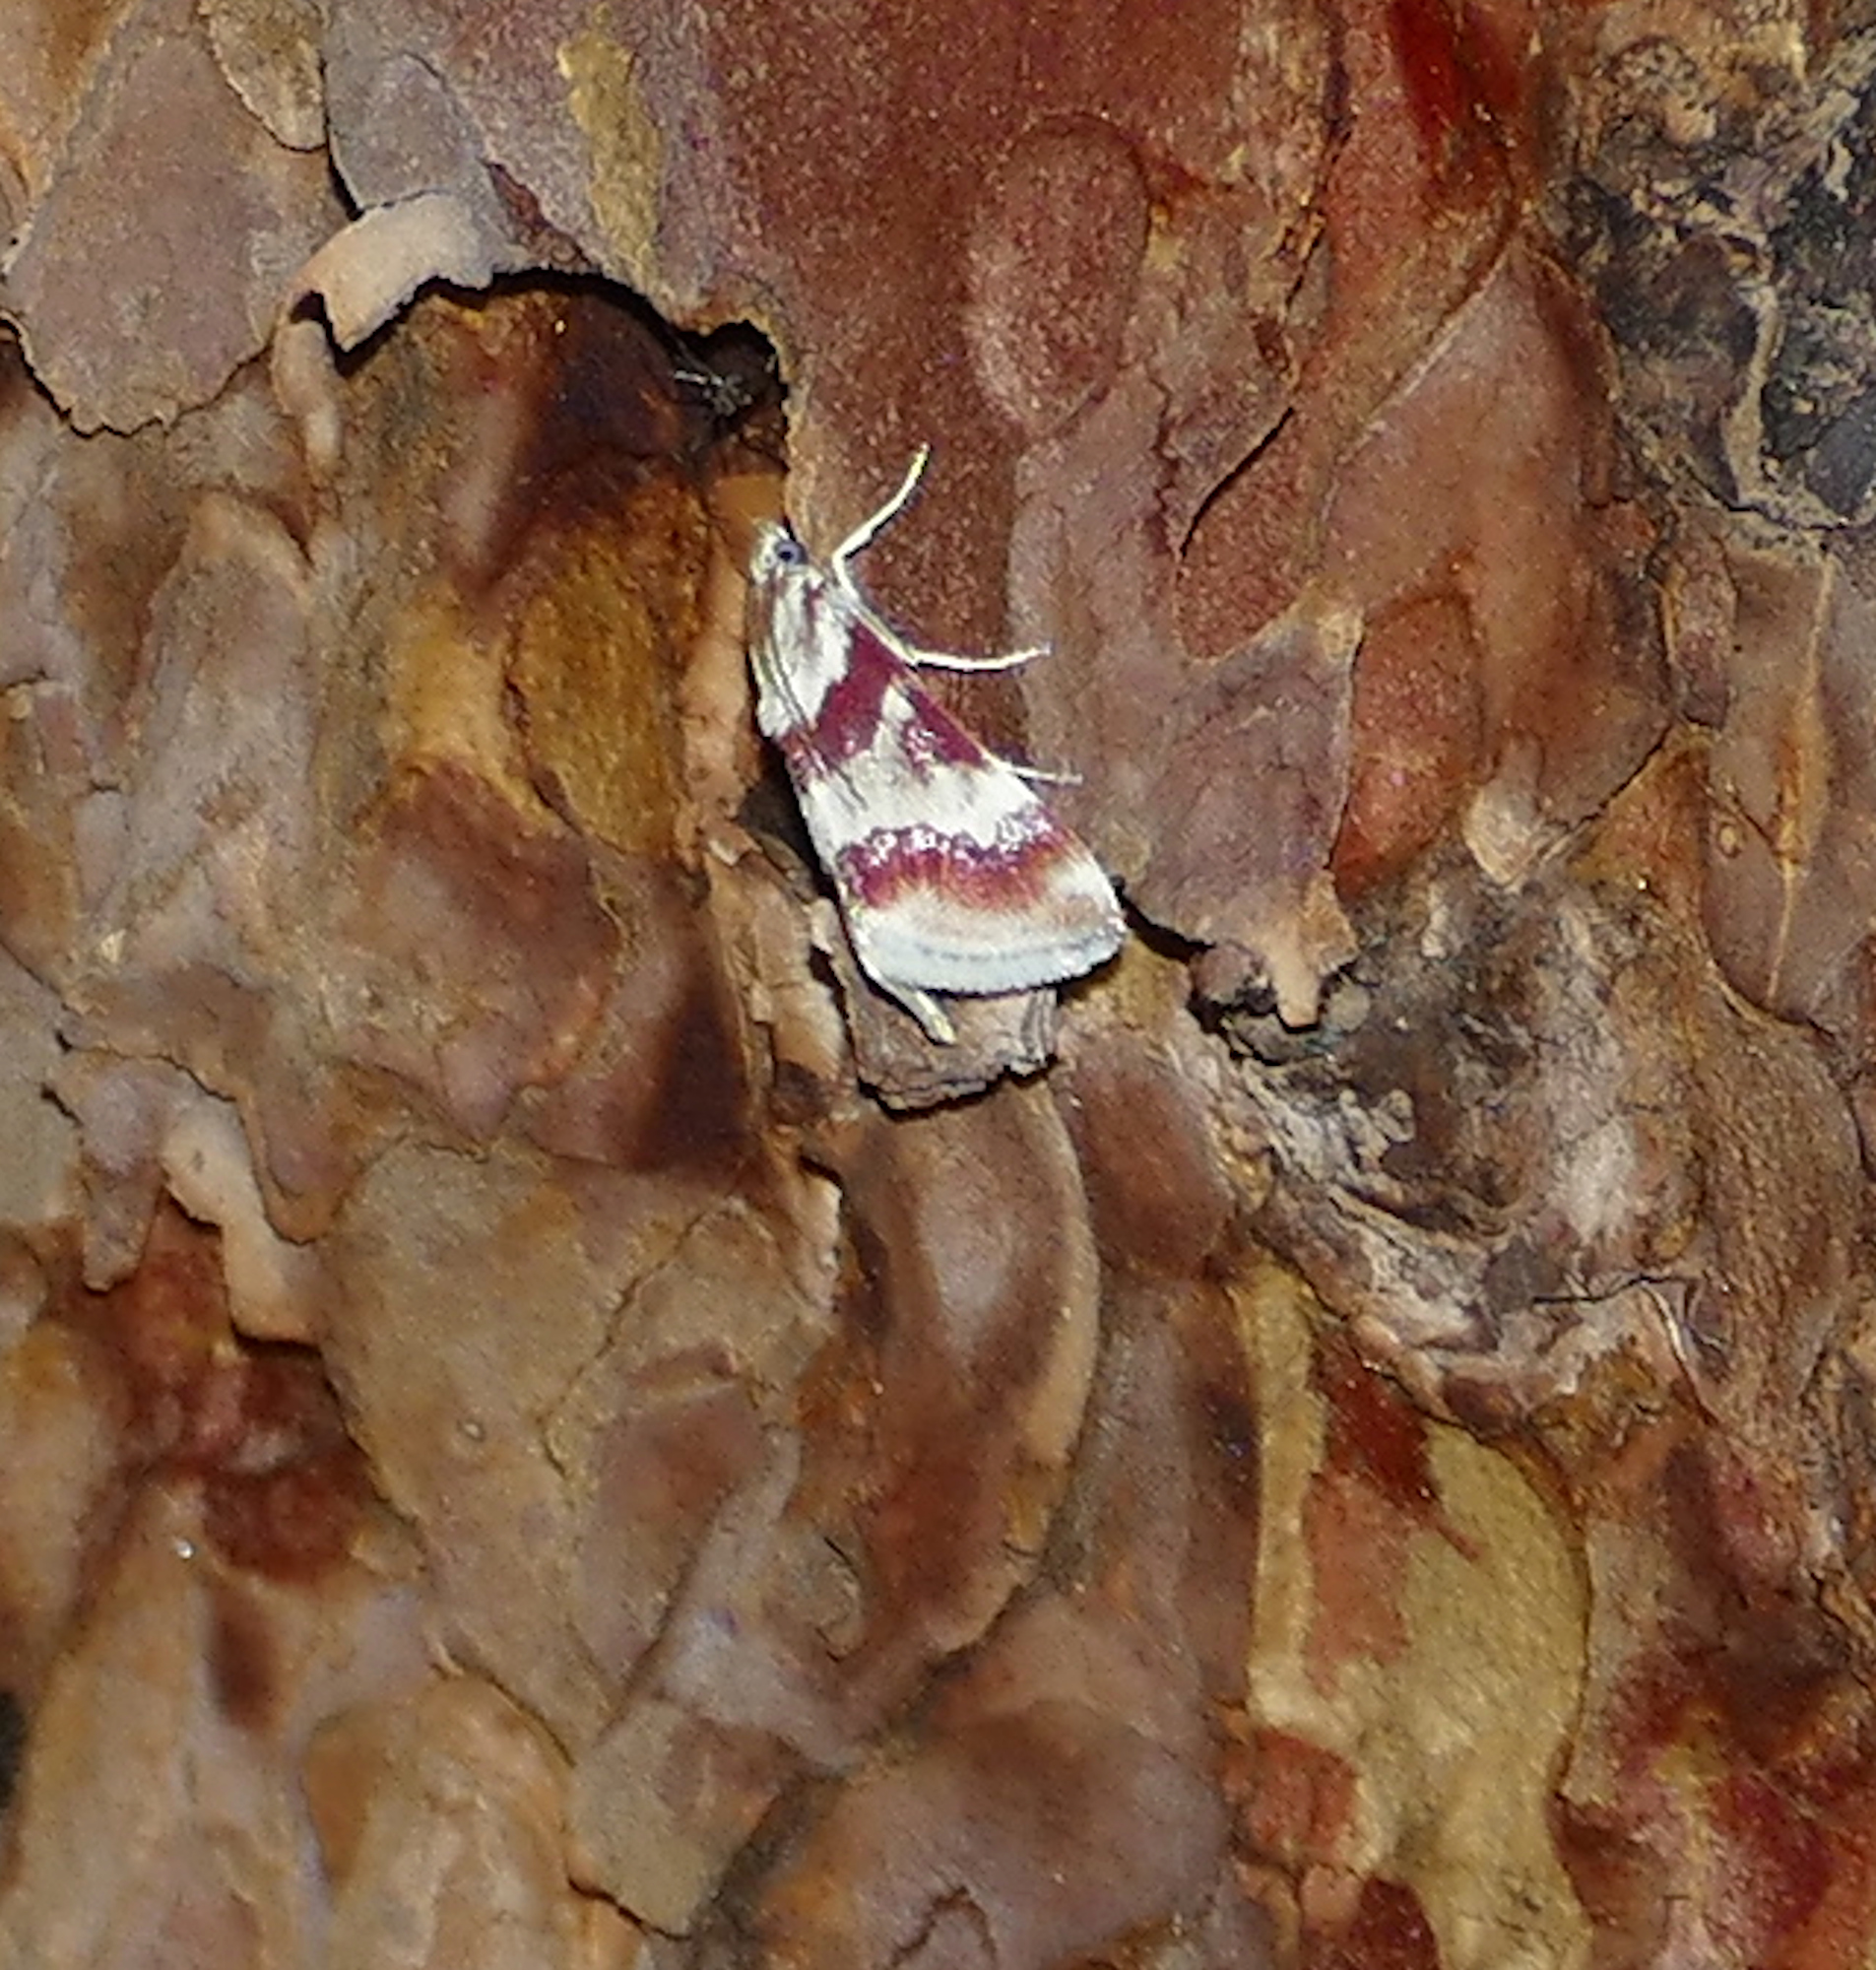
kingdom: Animalia
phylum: Arthropoda
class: Insecta
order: Lepidoptera
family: Crambidae
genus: Noctuelia
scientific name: Noctuelia Mimoschinia rufofascialis
